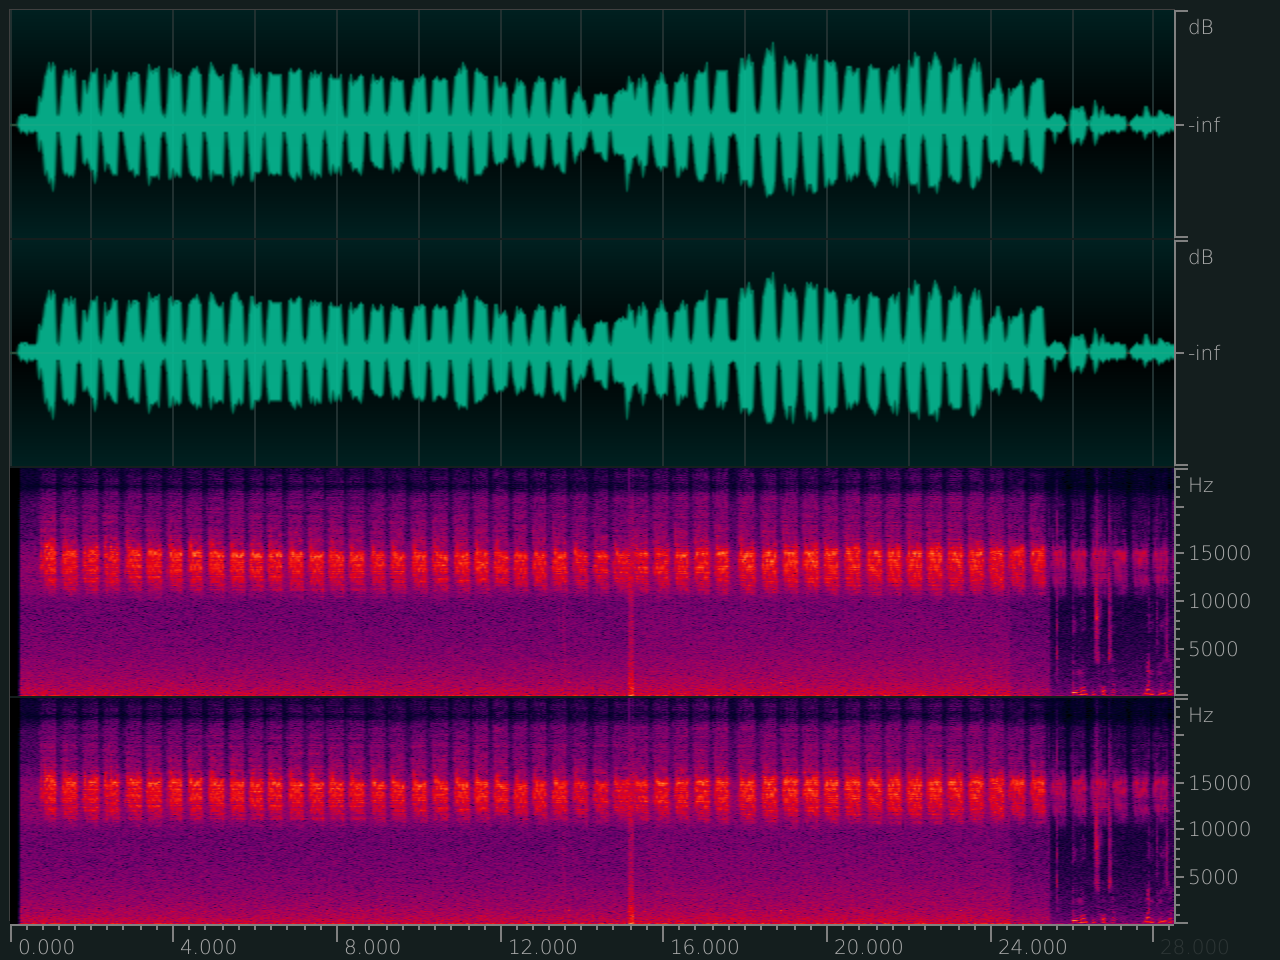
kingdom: Animalia
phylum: Chordata
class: Aves
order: Strigiformes
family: Strigidae
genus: Otus
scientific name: Otus spilocephalus
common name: Mountain scops owl
